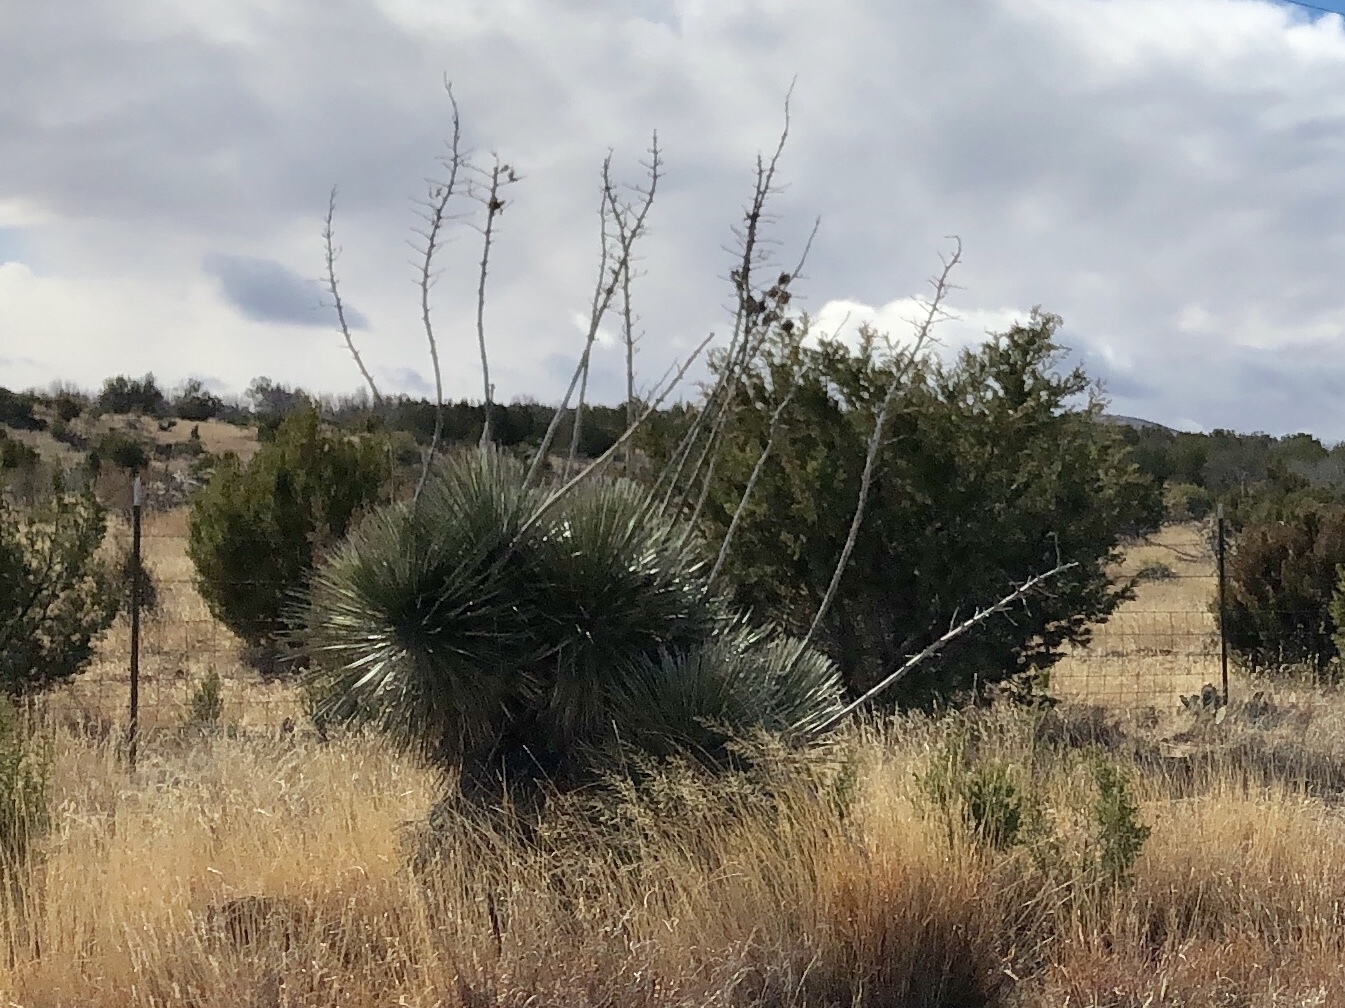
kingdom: Plantae
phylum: Tracheophyta
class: Liliopsida
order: Asparagales
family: Asparagaceae
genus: Yucca
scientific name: Yucca elata
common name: Palmella
